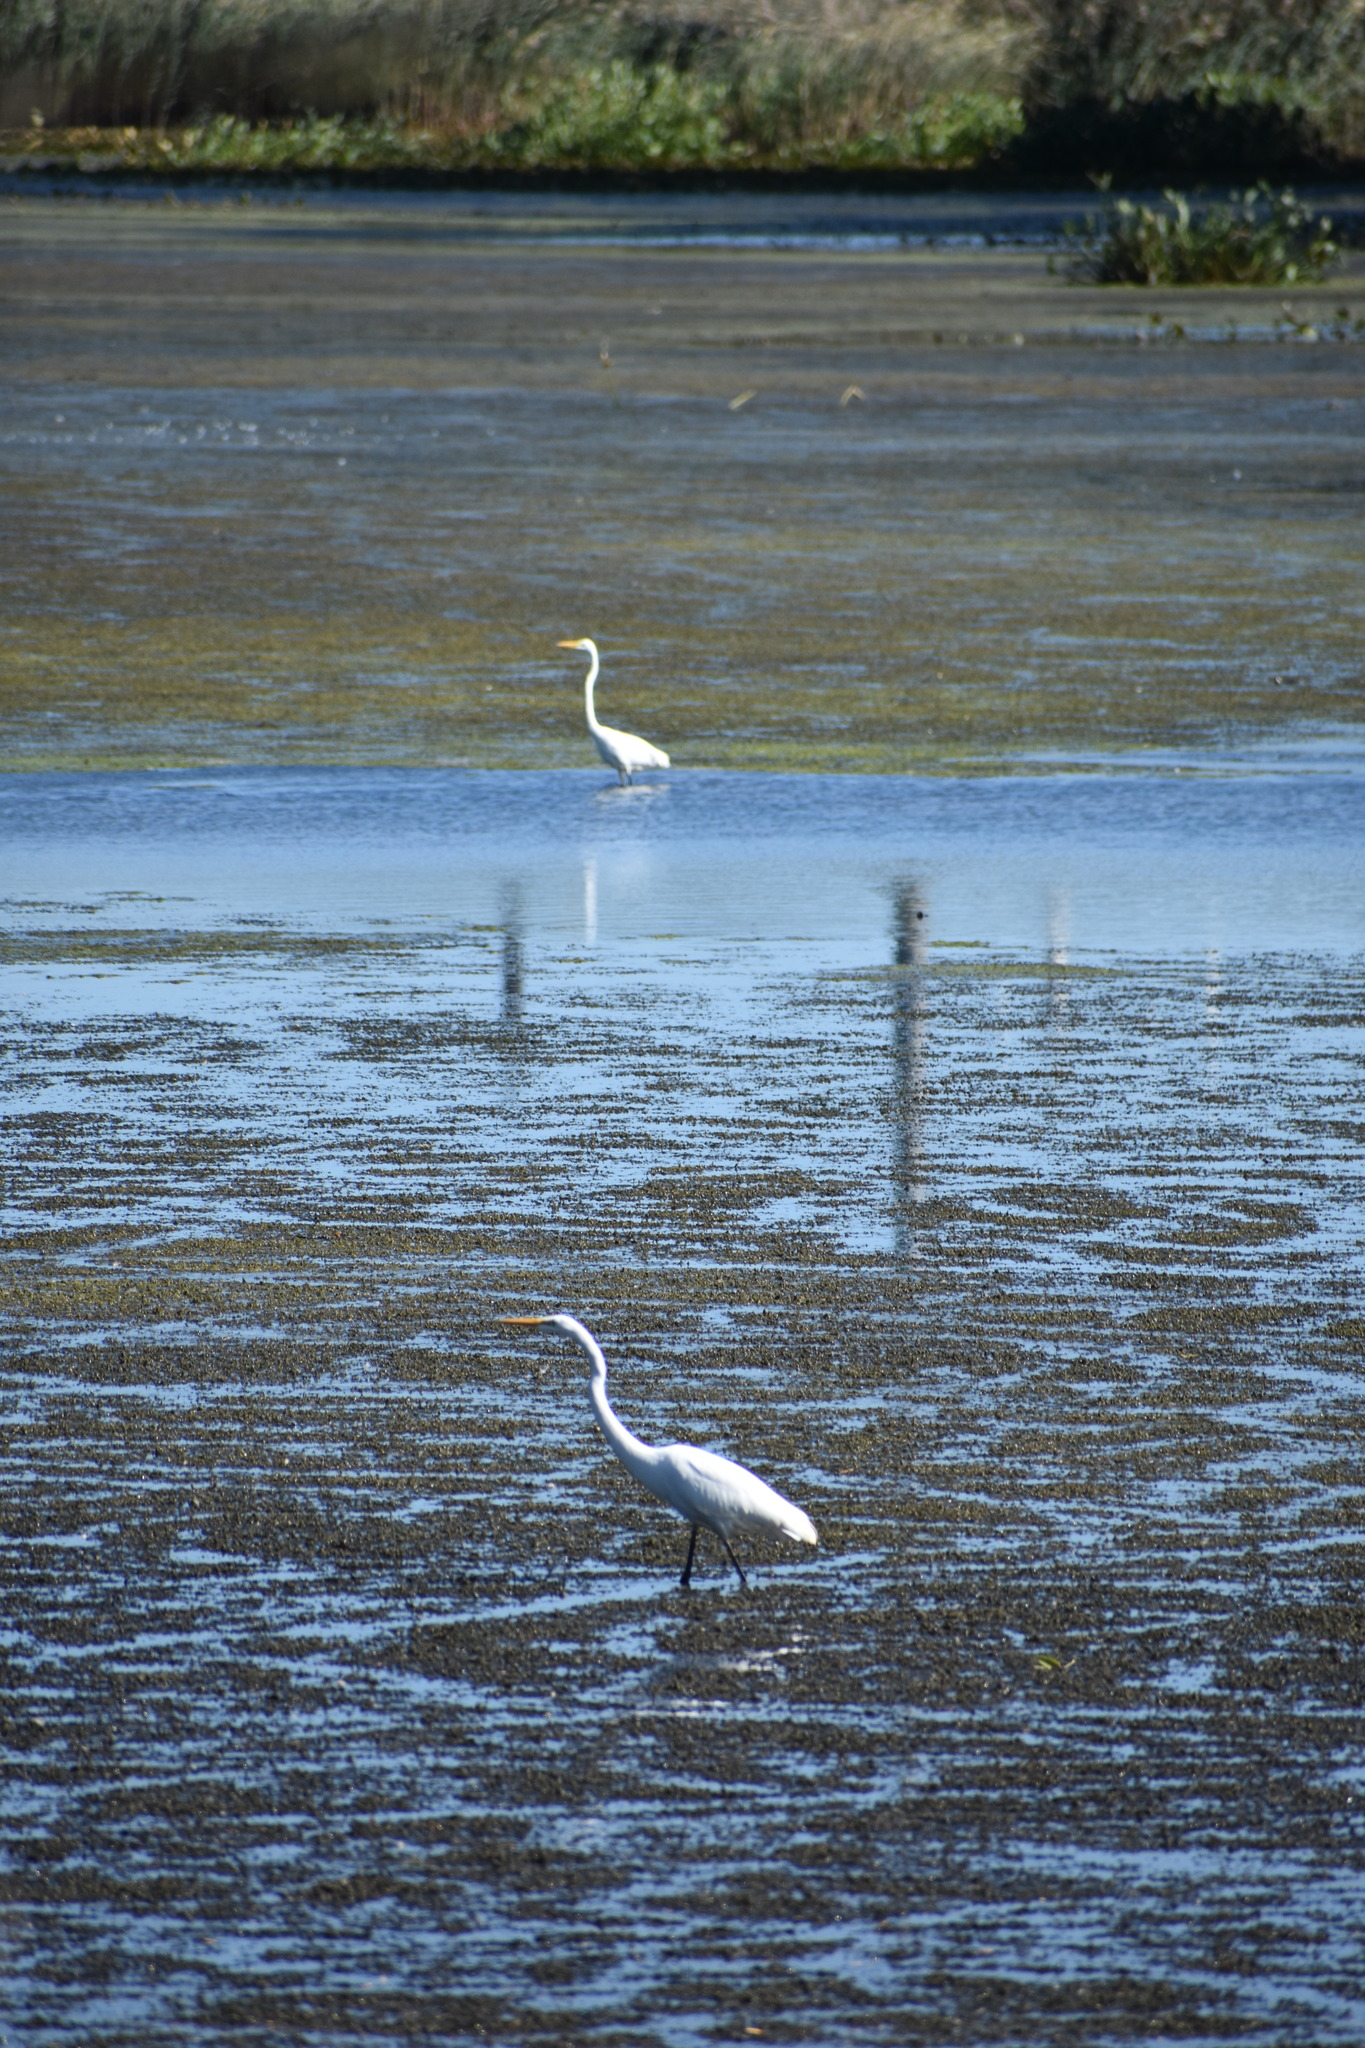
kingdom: Animalia
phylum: Chordata
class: Aves
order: Pelecaniformes
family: Ardeidae
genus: Ardea
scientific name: Ardea alba
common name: Great egret
